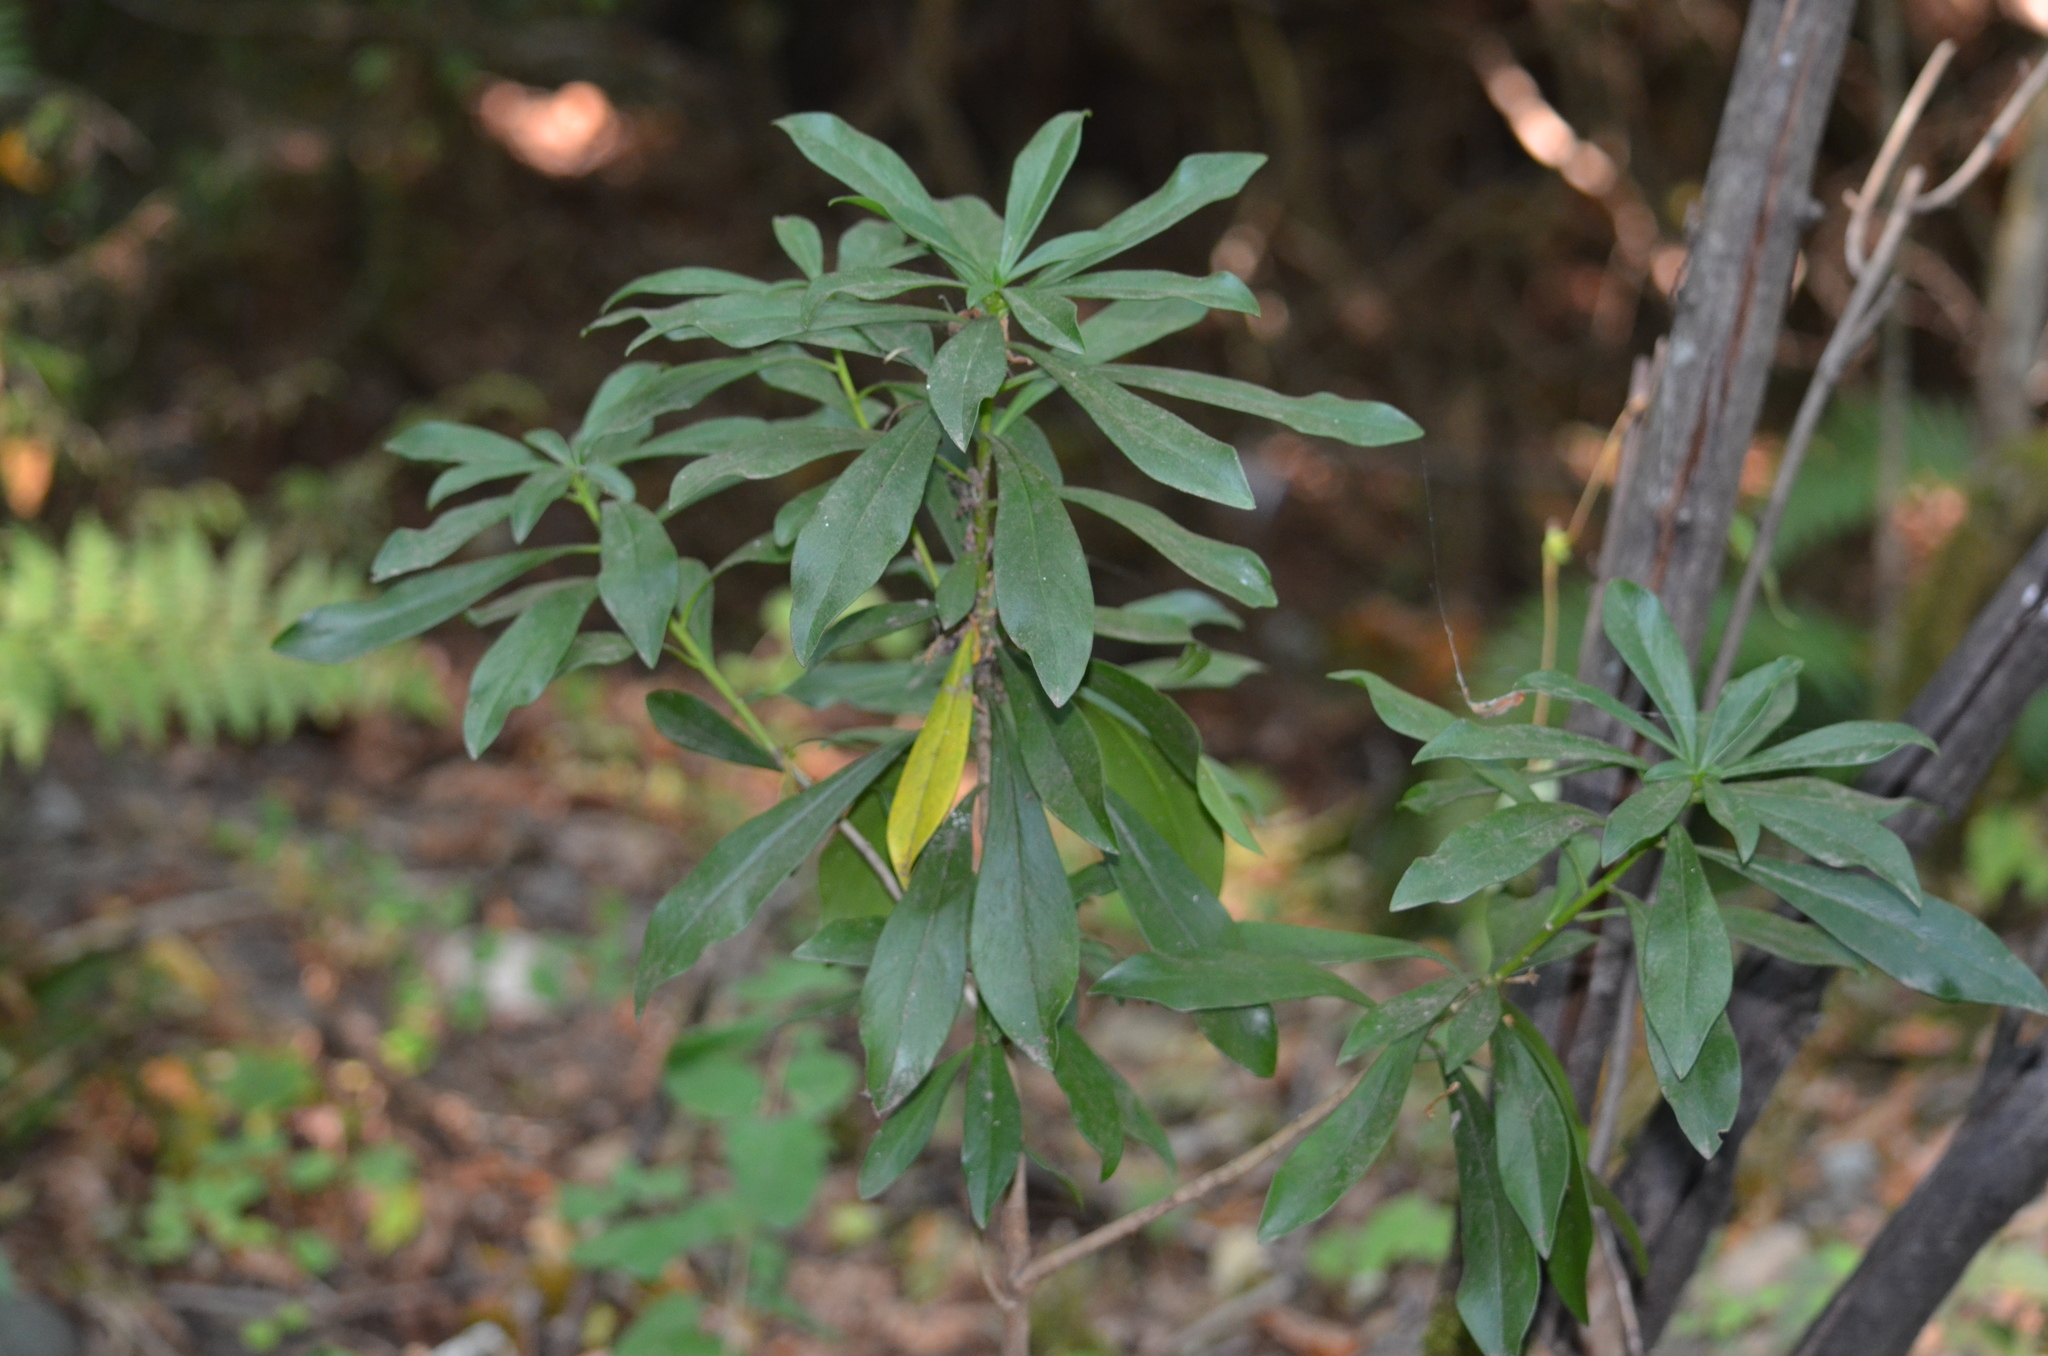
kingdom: Plantae
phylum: Tracheophyta
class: Magnoliopsida
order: Malvales
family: Thymelaeaceae
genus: Daphne
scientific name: Daphne laureola
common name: Spurge-laurel
